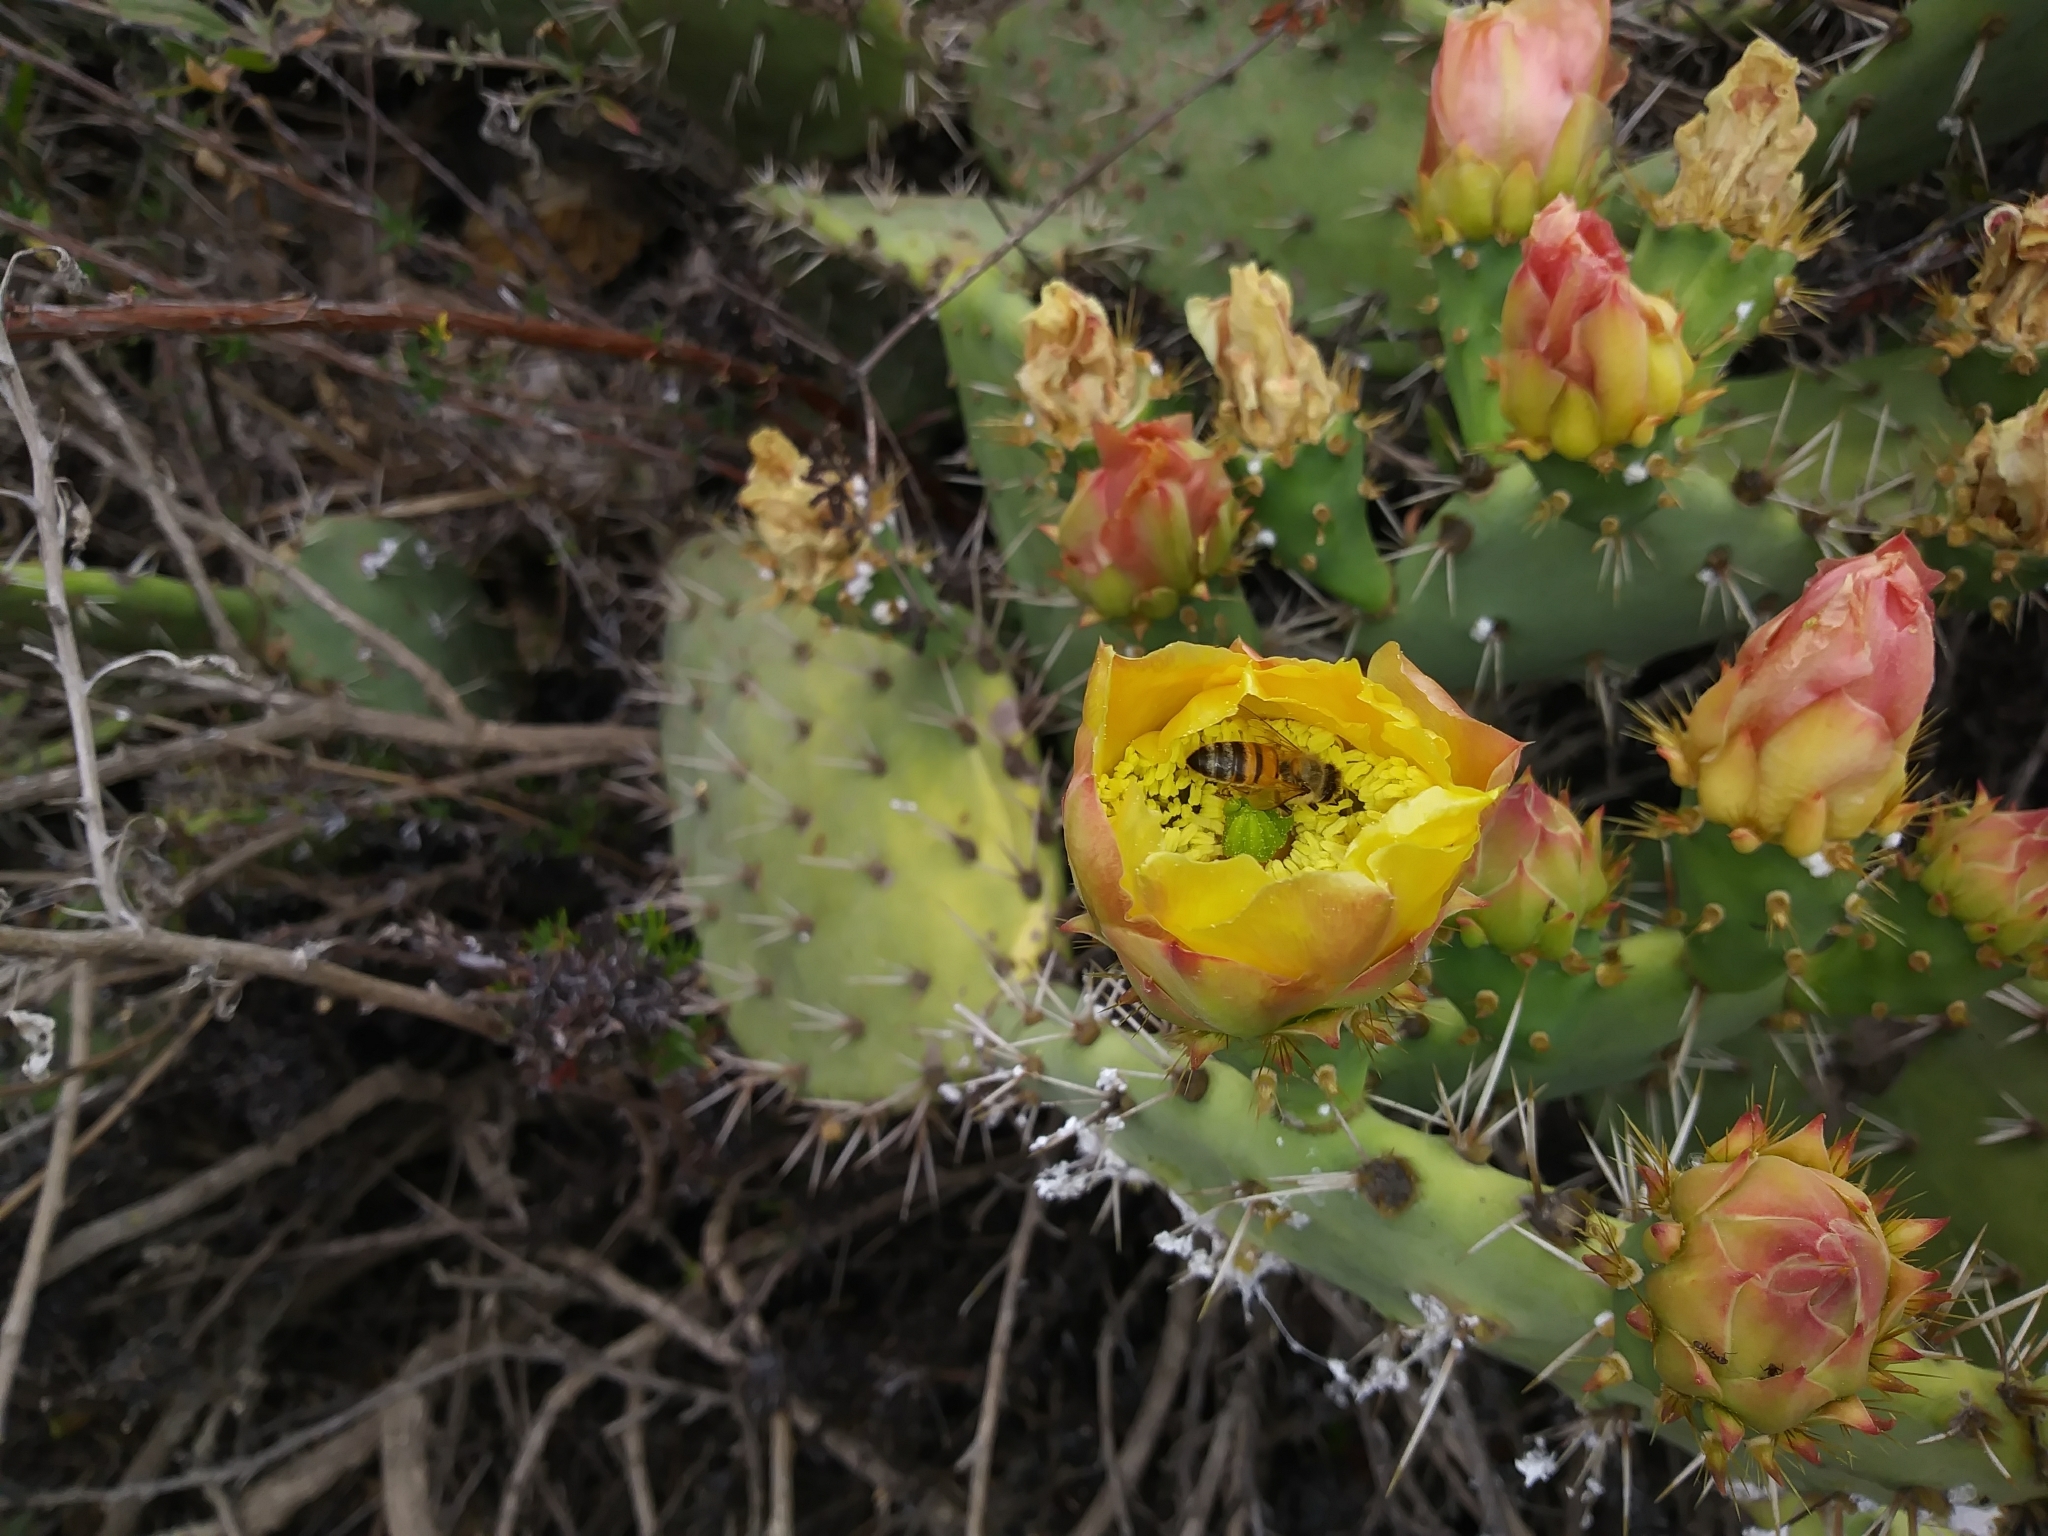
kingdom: Animalia
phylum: Arthropoda
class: Insecta
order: Hymenoptera
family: Apidae
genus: Apis
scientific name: Apis mellifera
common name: Honey bee
